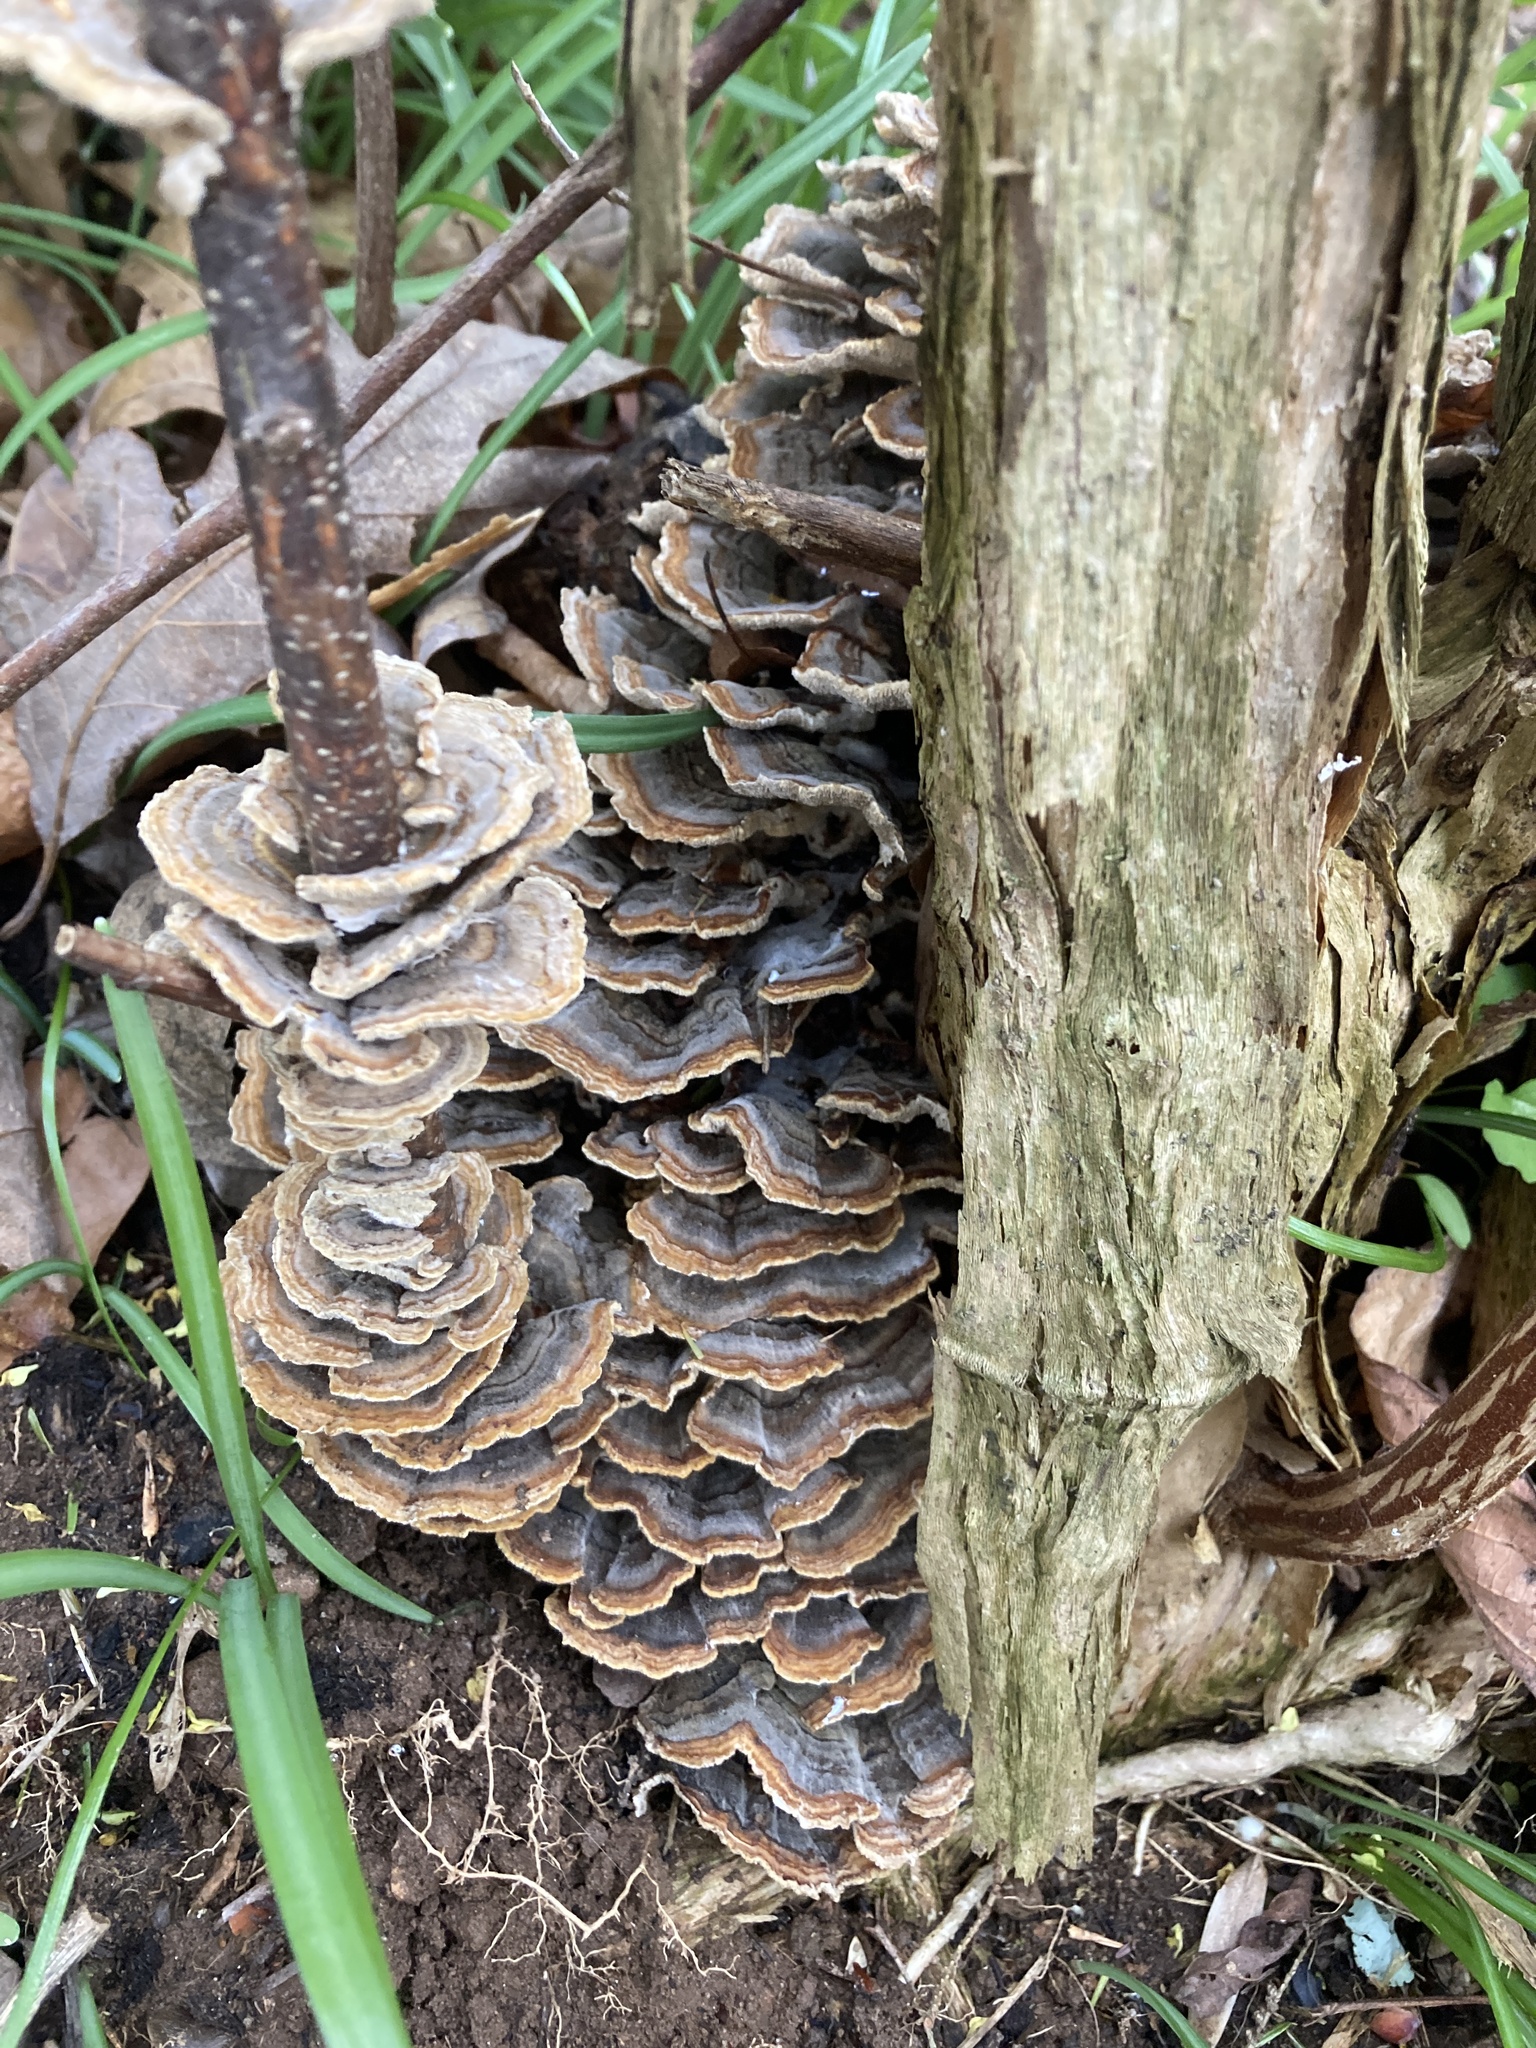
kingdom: Fungi
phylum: Basidiomycota
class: Agaricomycetes
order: Polyporales
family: Polyporaceae
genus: Trametes
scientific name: Trametes versicolor
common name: Turkeytail
